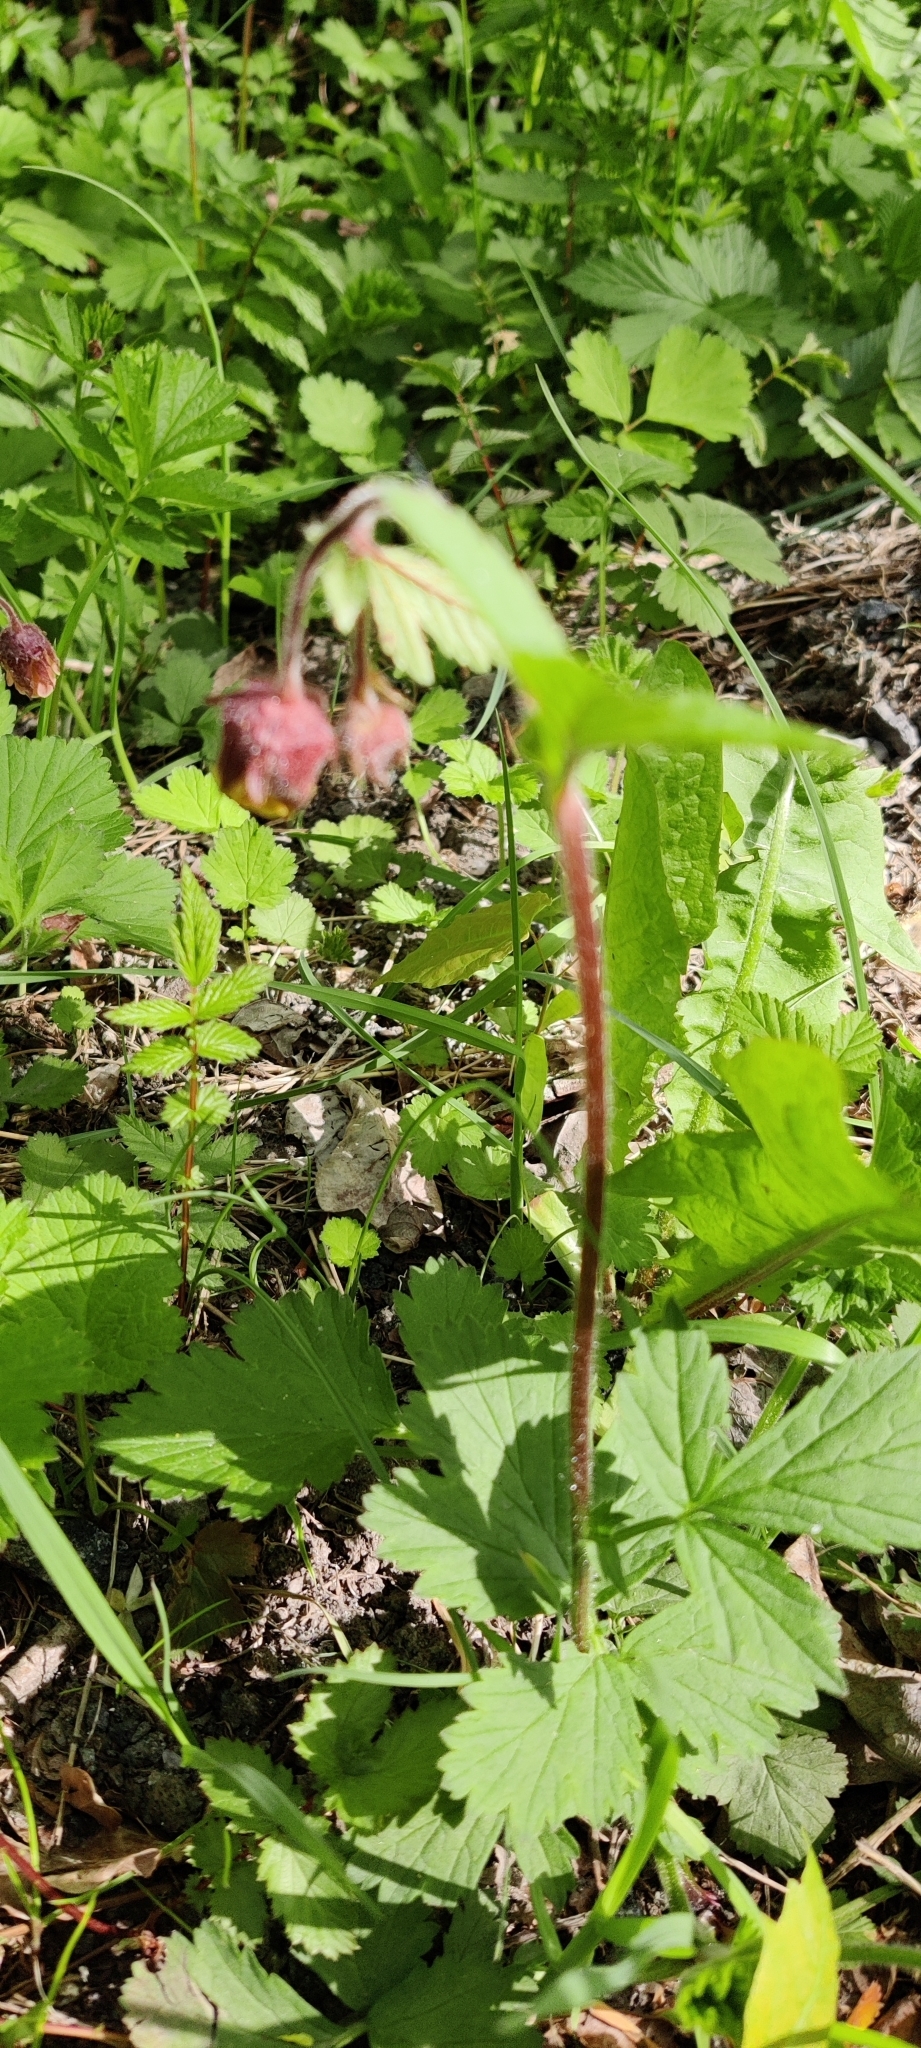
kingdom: Plantae
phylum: Tracheophyta
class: Magnoliopsida
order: Rosales
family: Rosaceae
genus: Geum
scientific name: Geum rivale
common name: Water avens
